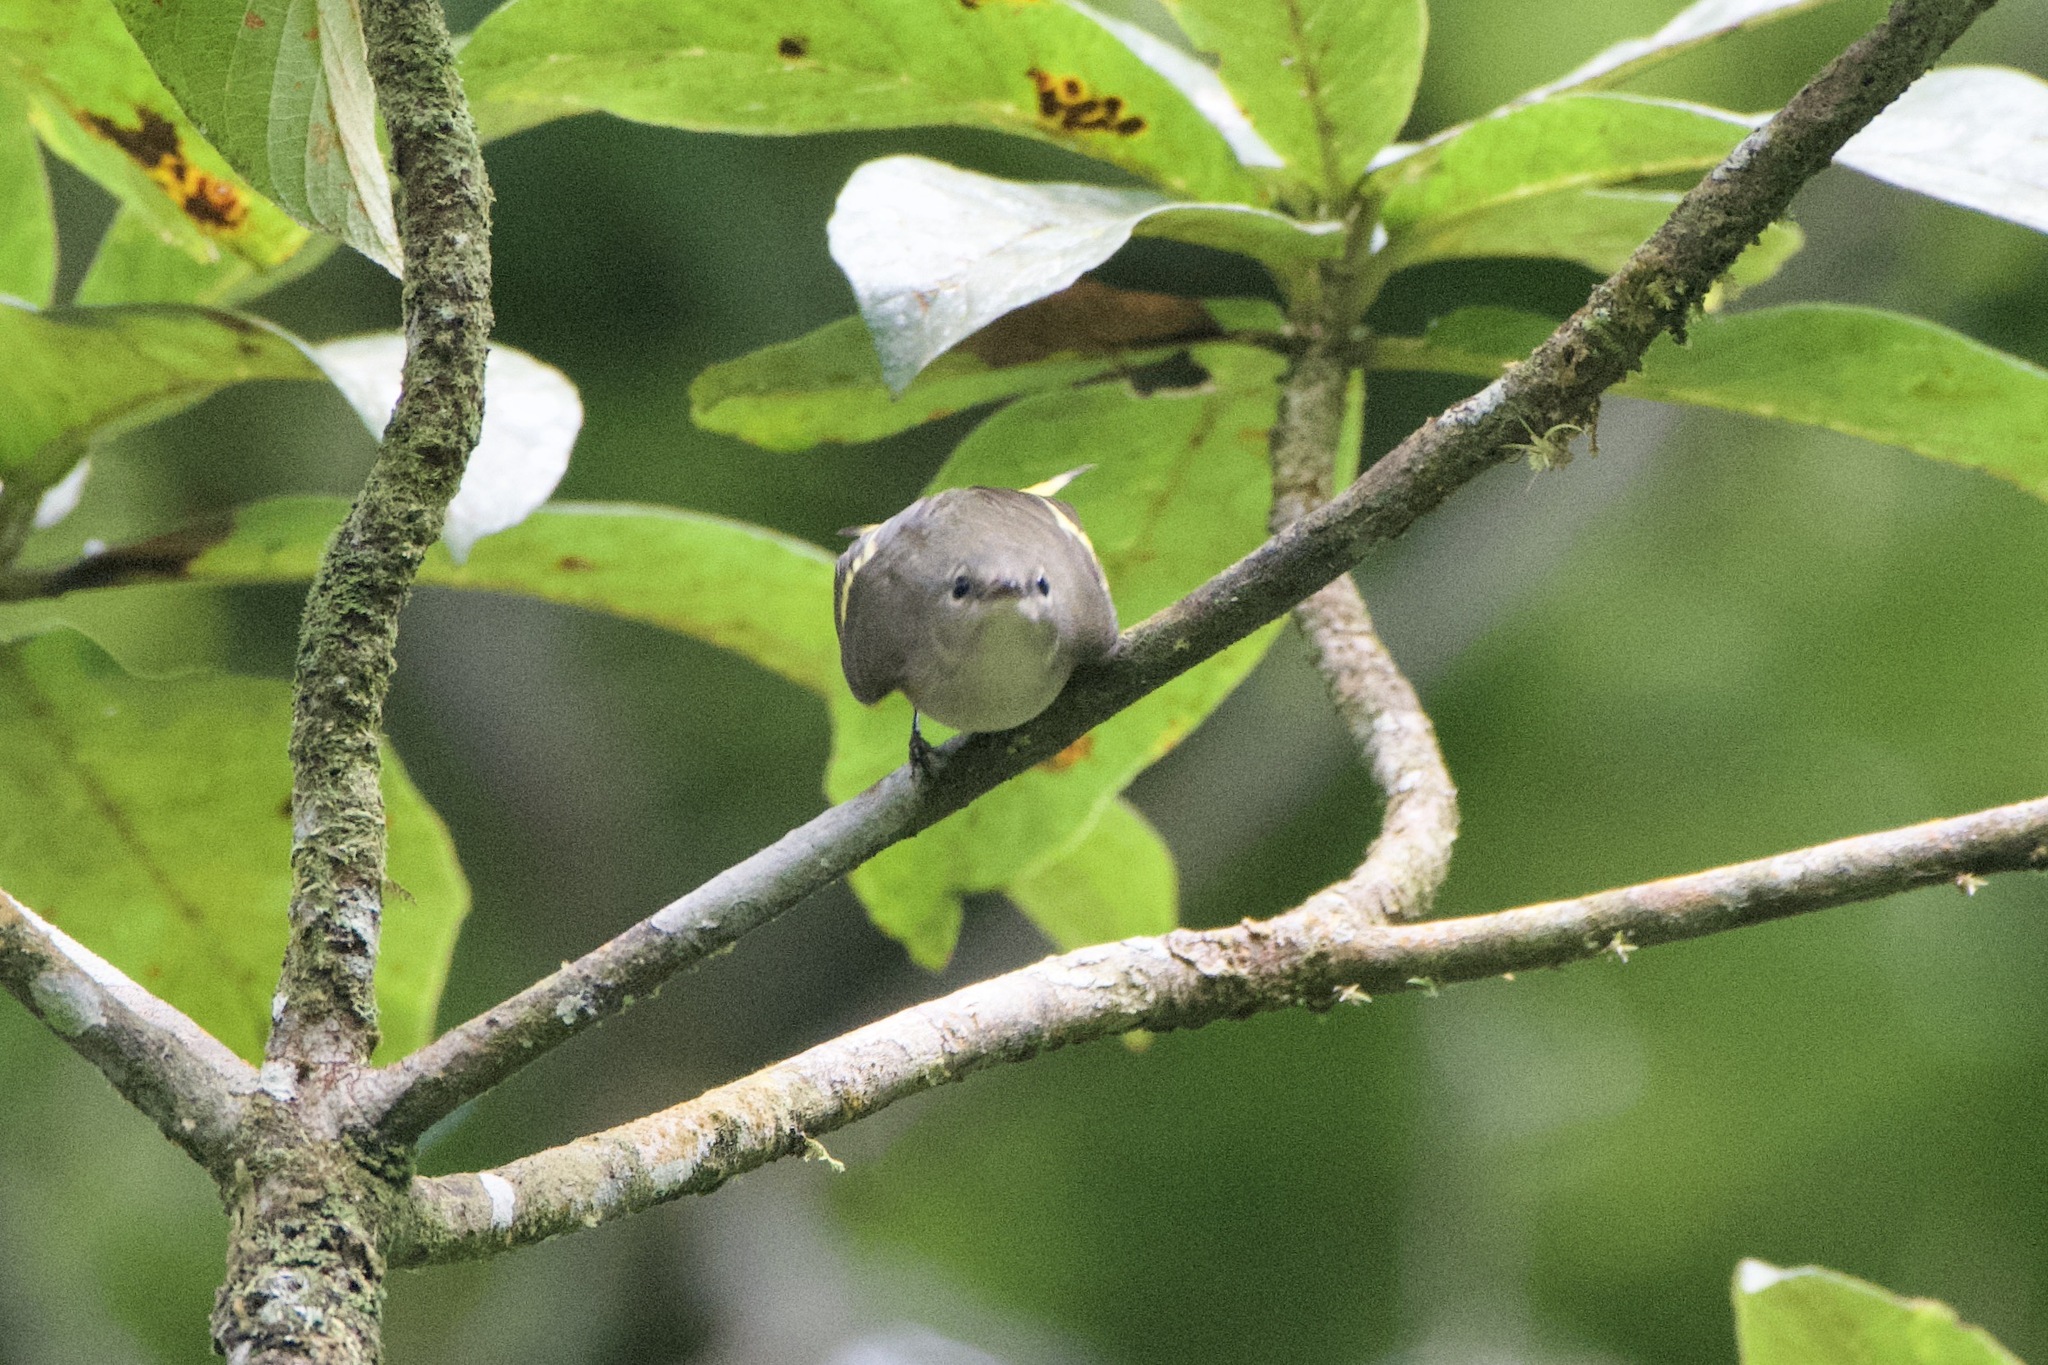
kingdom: Animalia
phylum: Chordata
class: Aves
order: Passeriformes
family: Parulidae
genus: Setophaga
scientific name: Setophaga ruticilla
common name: American redstart
